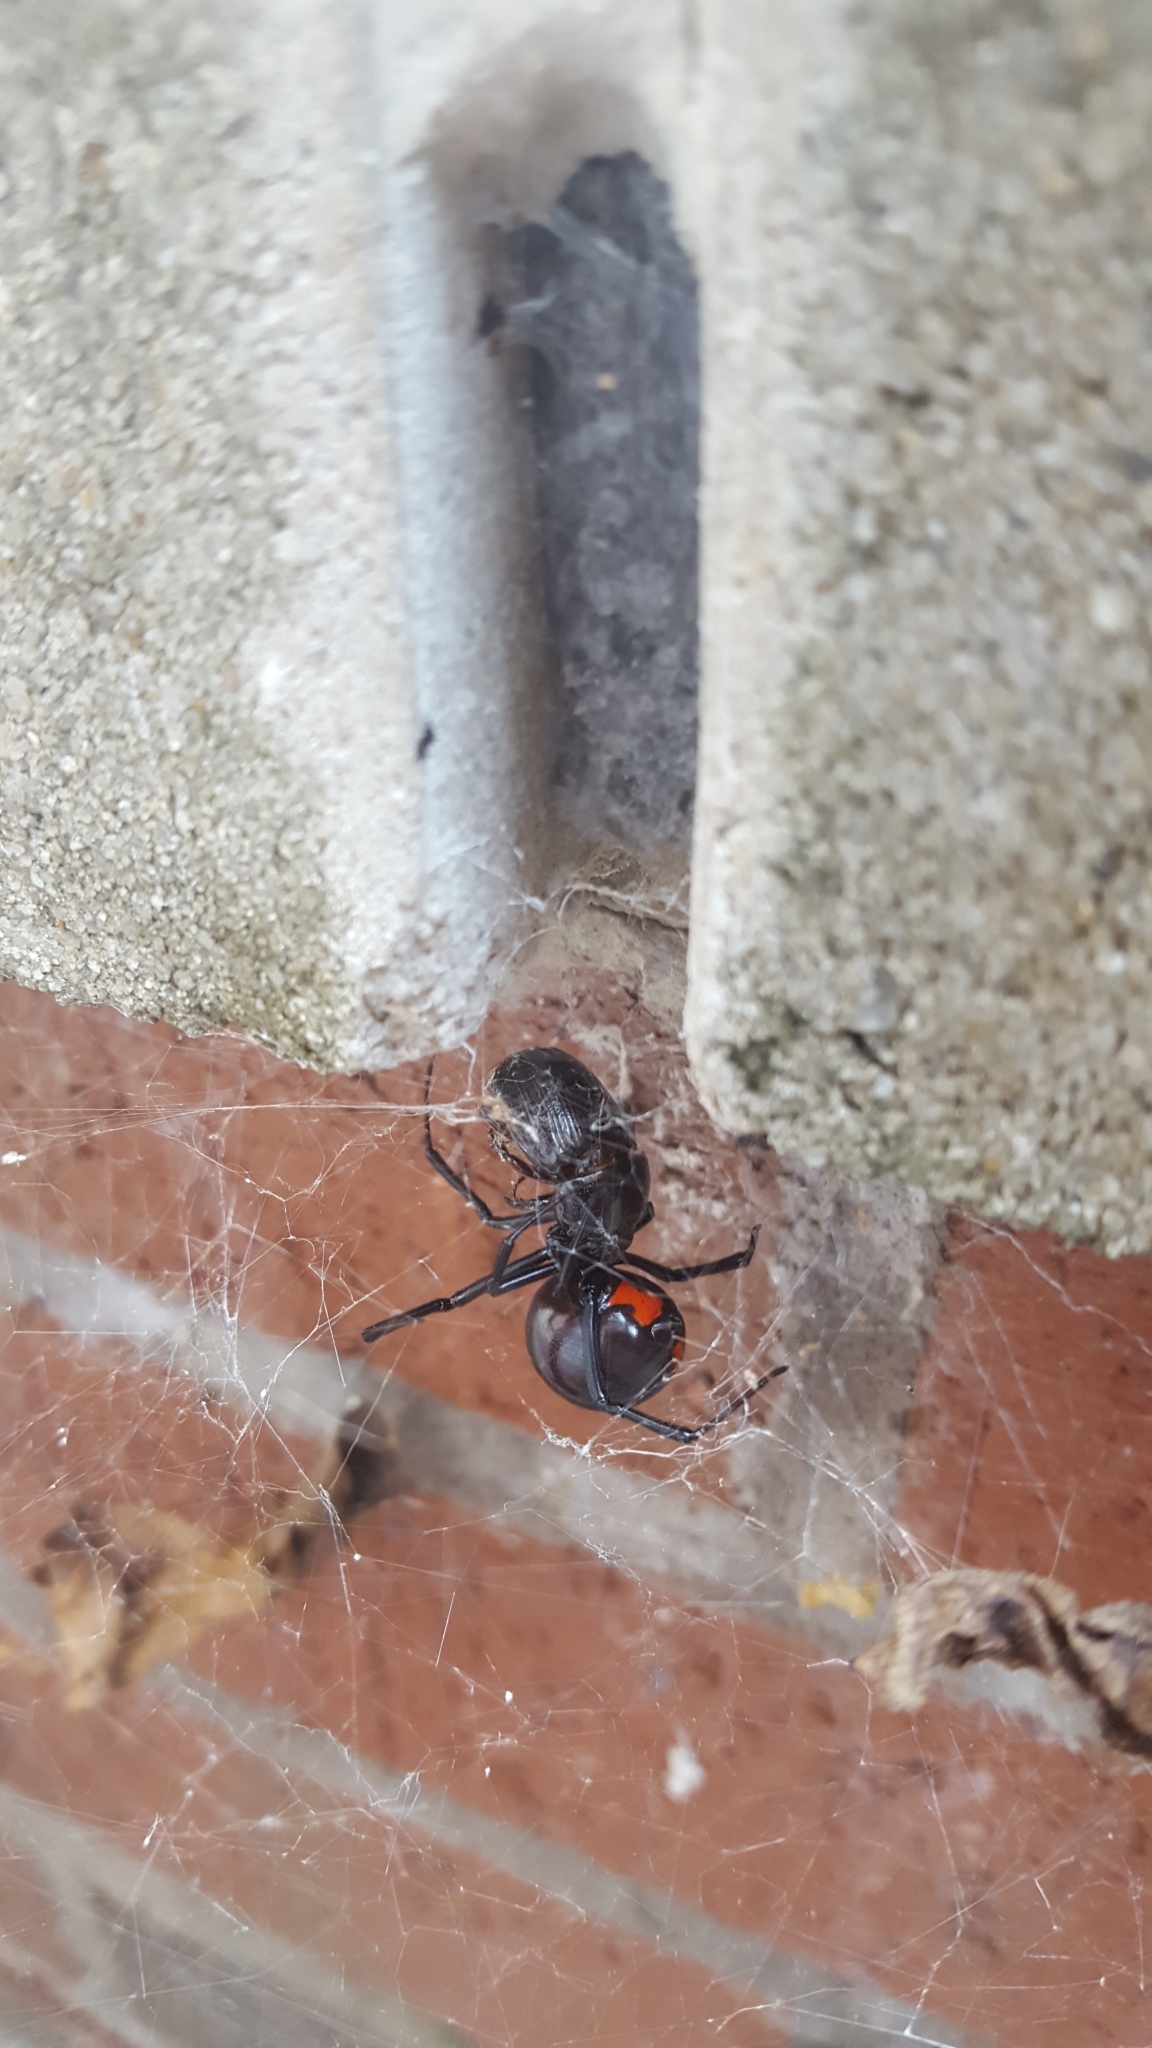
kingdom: Animalia
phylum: Arthropoda
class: Arachnida
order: Araneae
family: Theridiidae
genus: Latrodectus
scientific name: Latrodectus mactans
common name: Cobweb spiders
